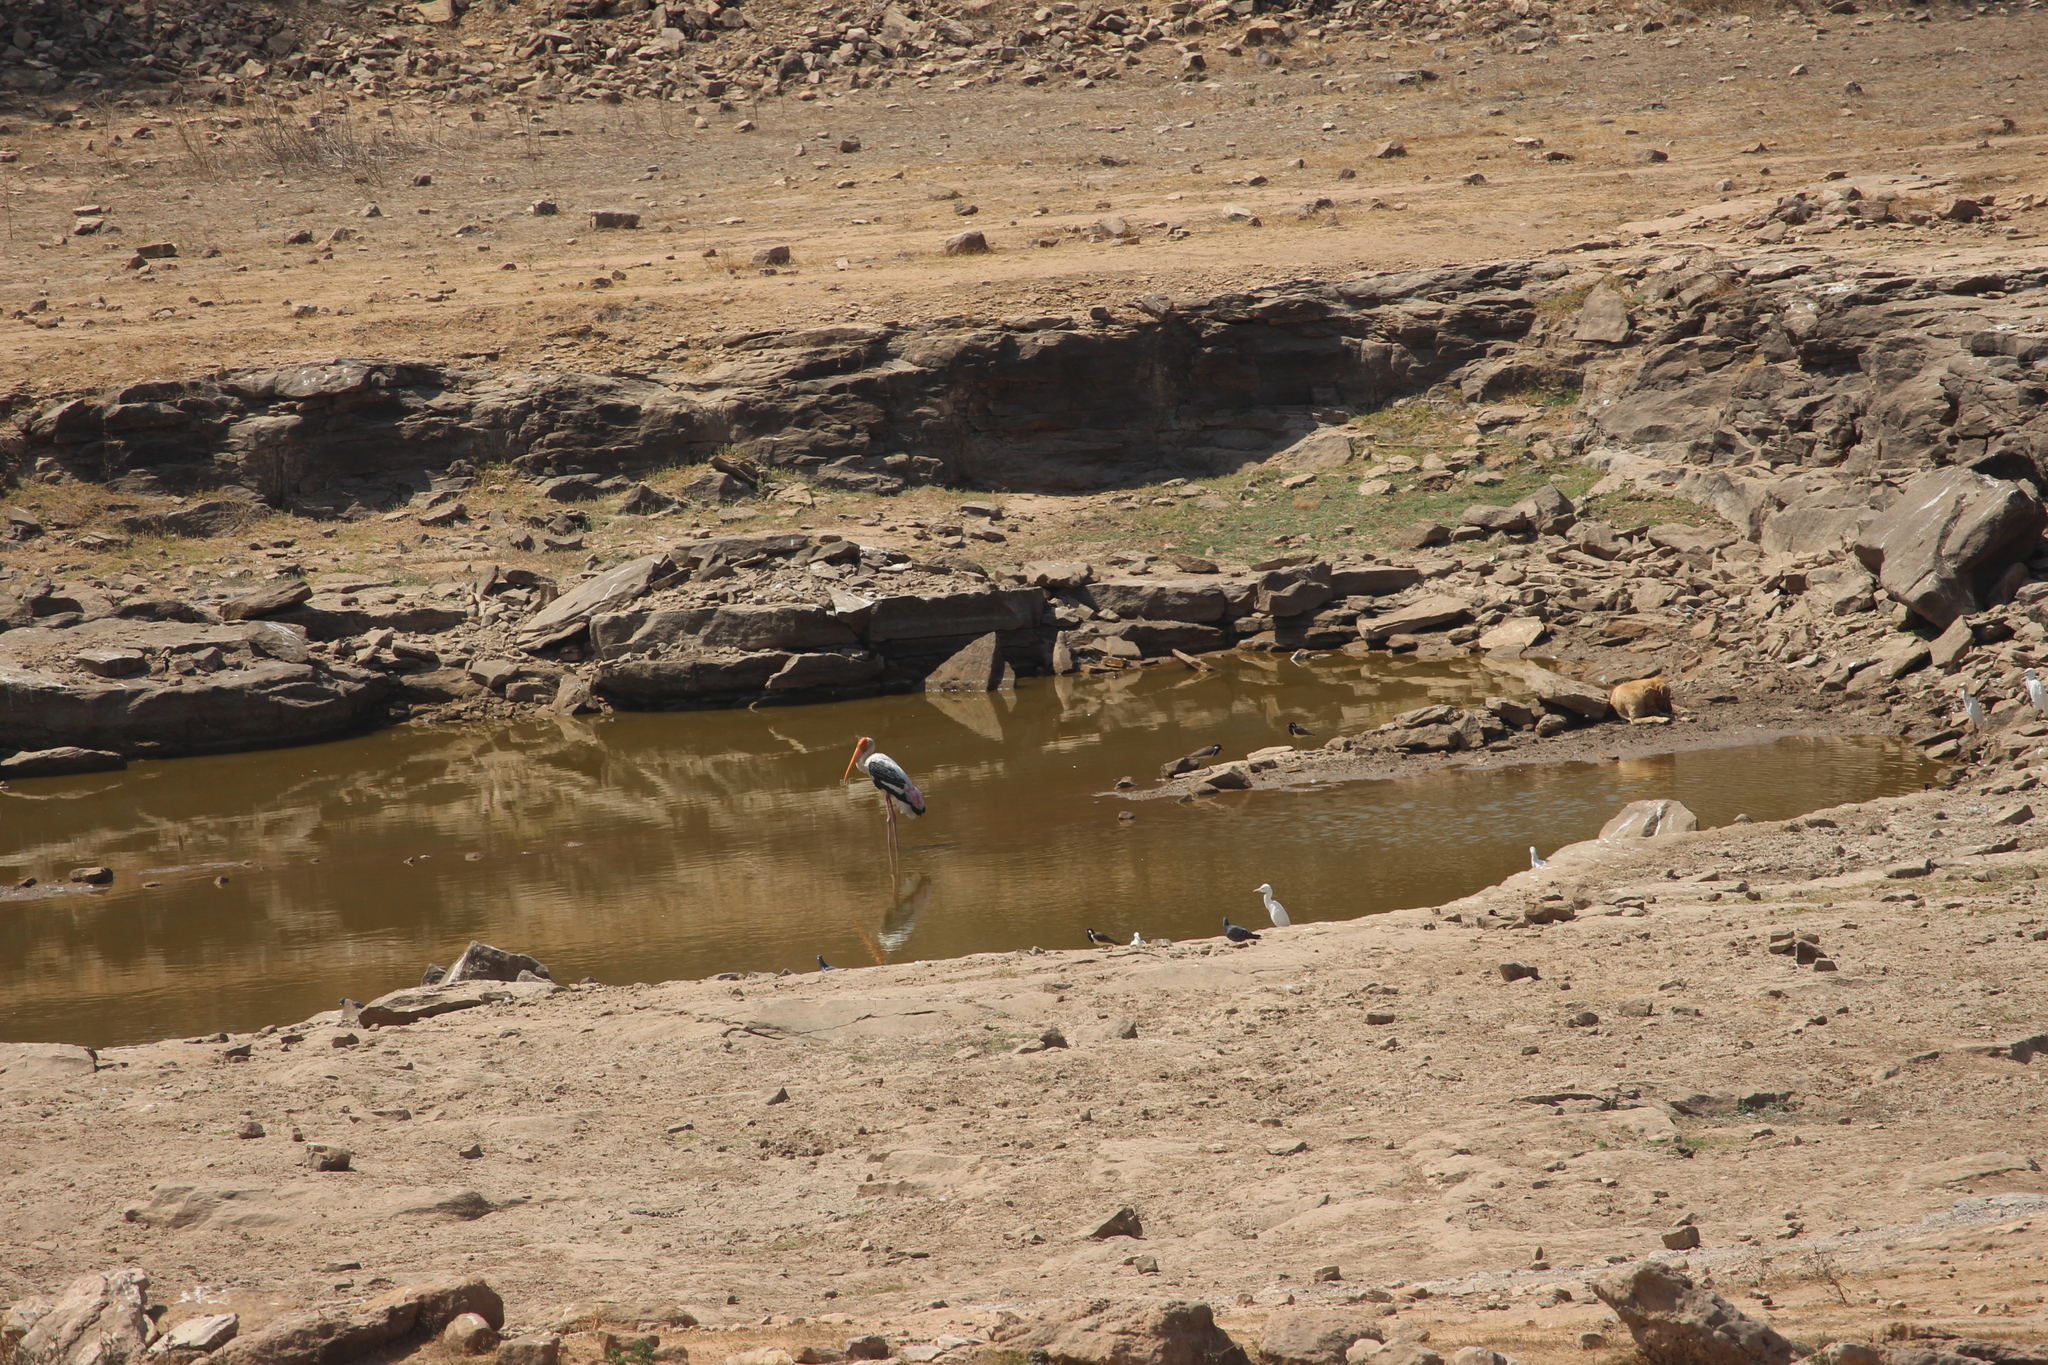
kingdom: Animalia
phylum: Chordata
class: Aves
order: Ciconiiformes
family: Ciconiidae
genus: Mycteria
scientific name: Mycteria leucocephala
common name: Painted stork
